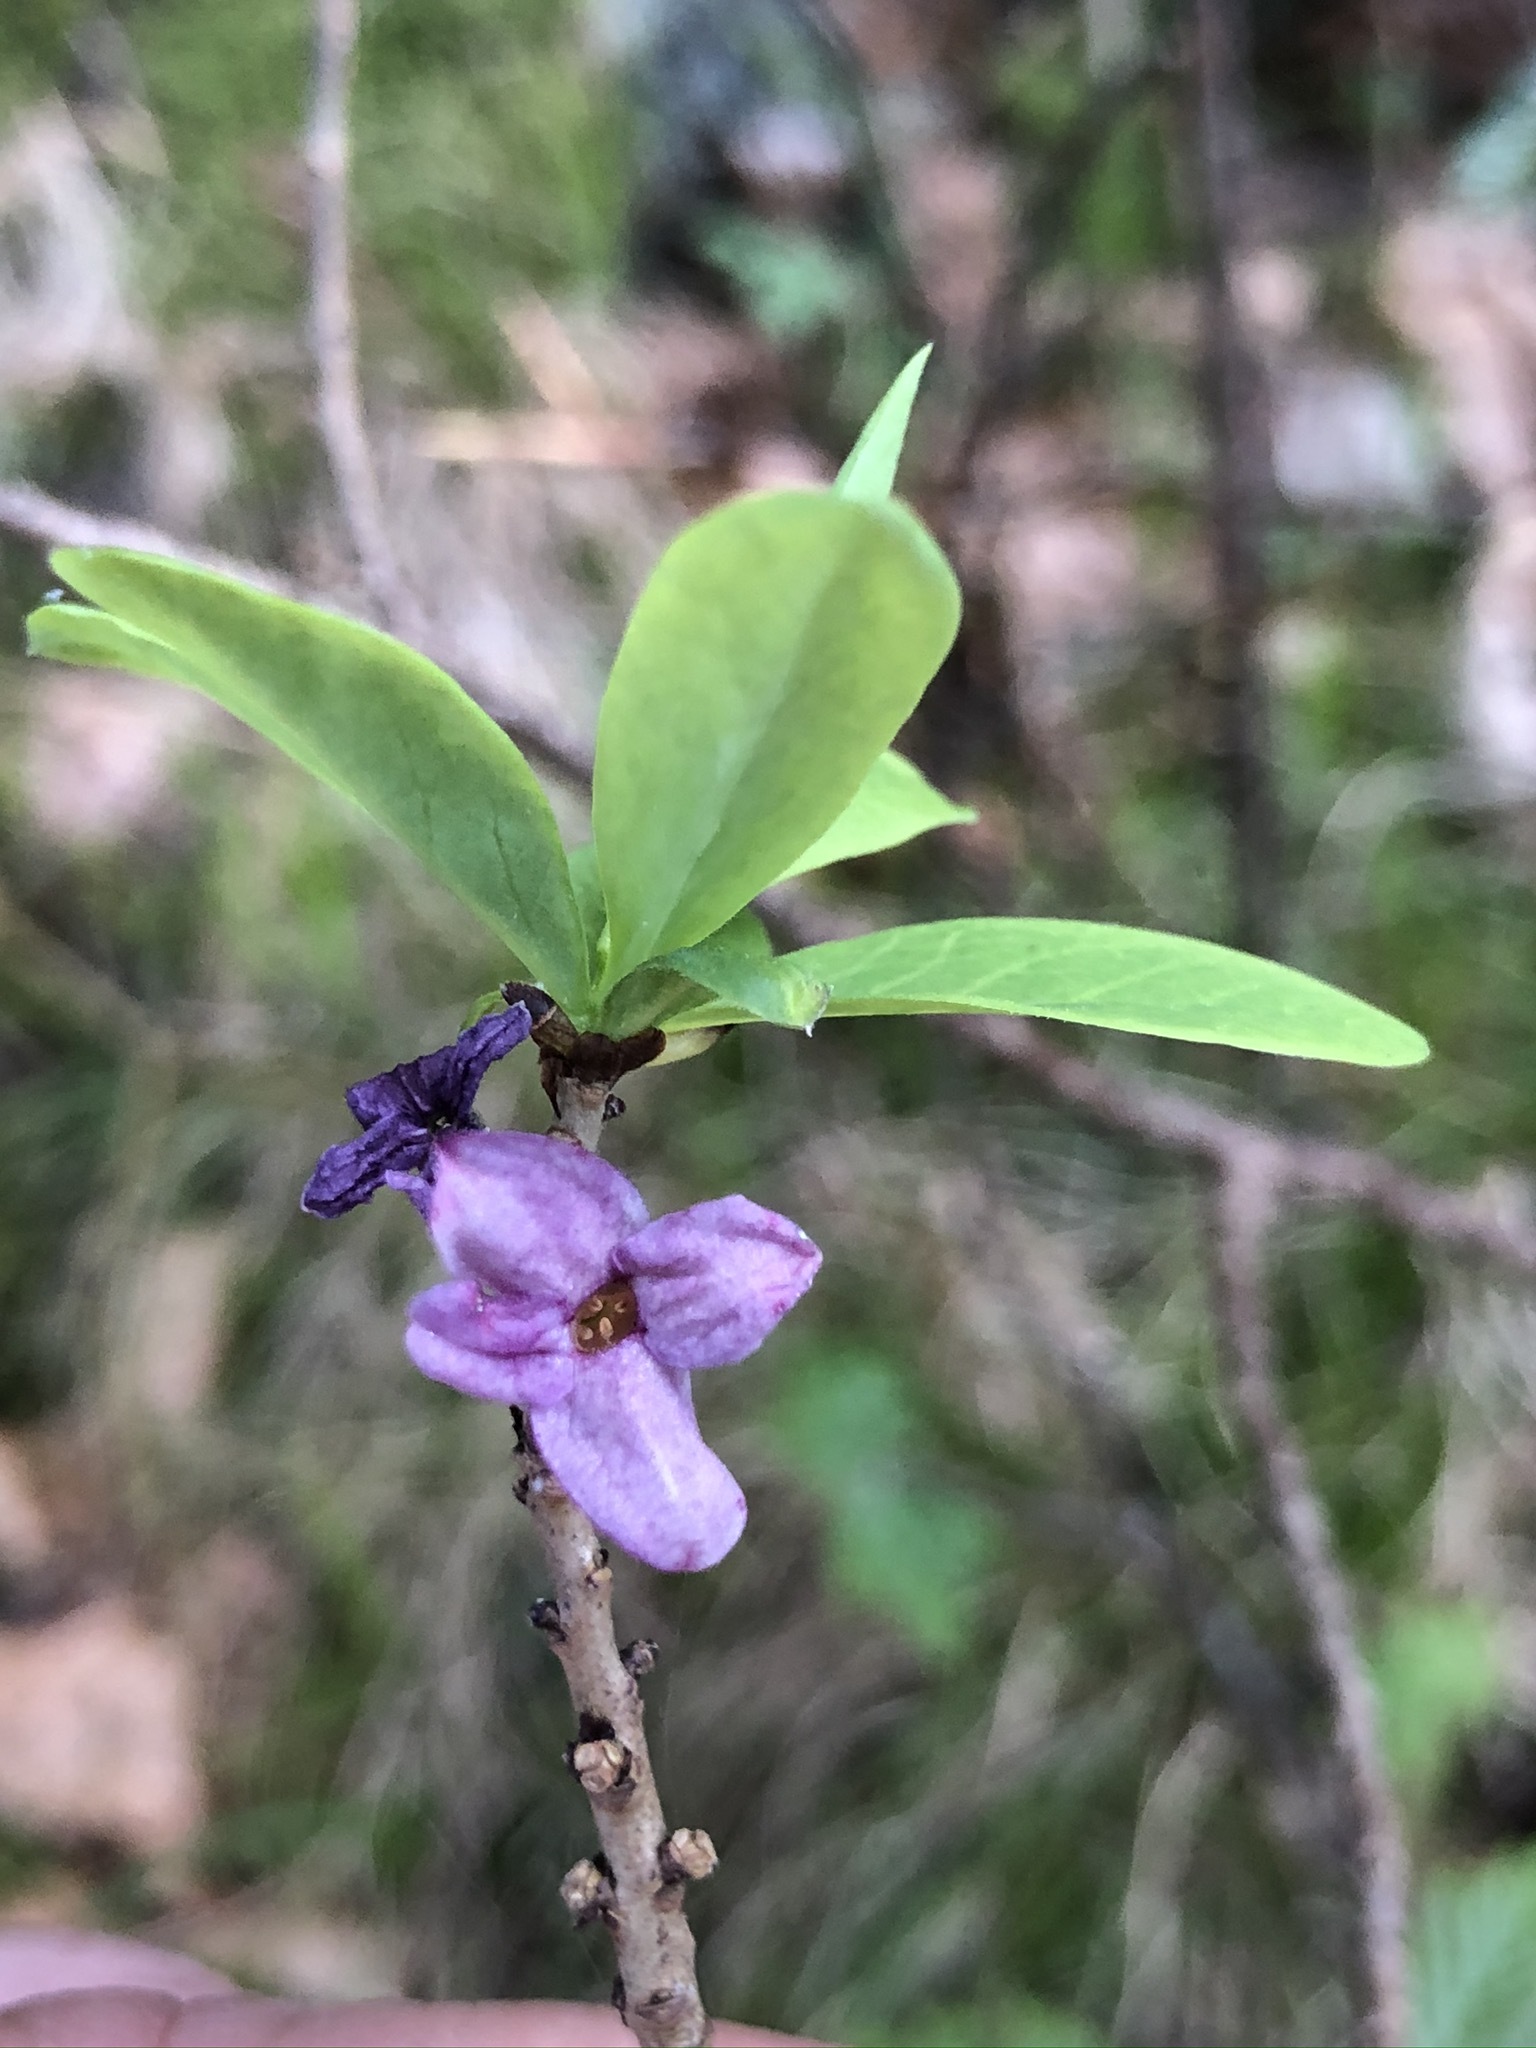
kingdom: Plantae
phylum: Tracheophyta
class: Magnoliopsida
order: Malvales
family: Thymelaeaceae
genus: Daphne
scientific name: Daphne mezereum
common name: Mezereon
